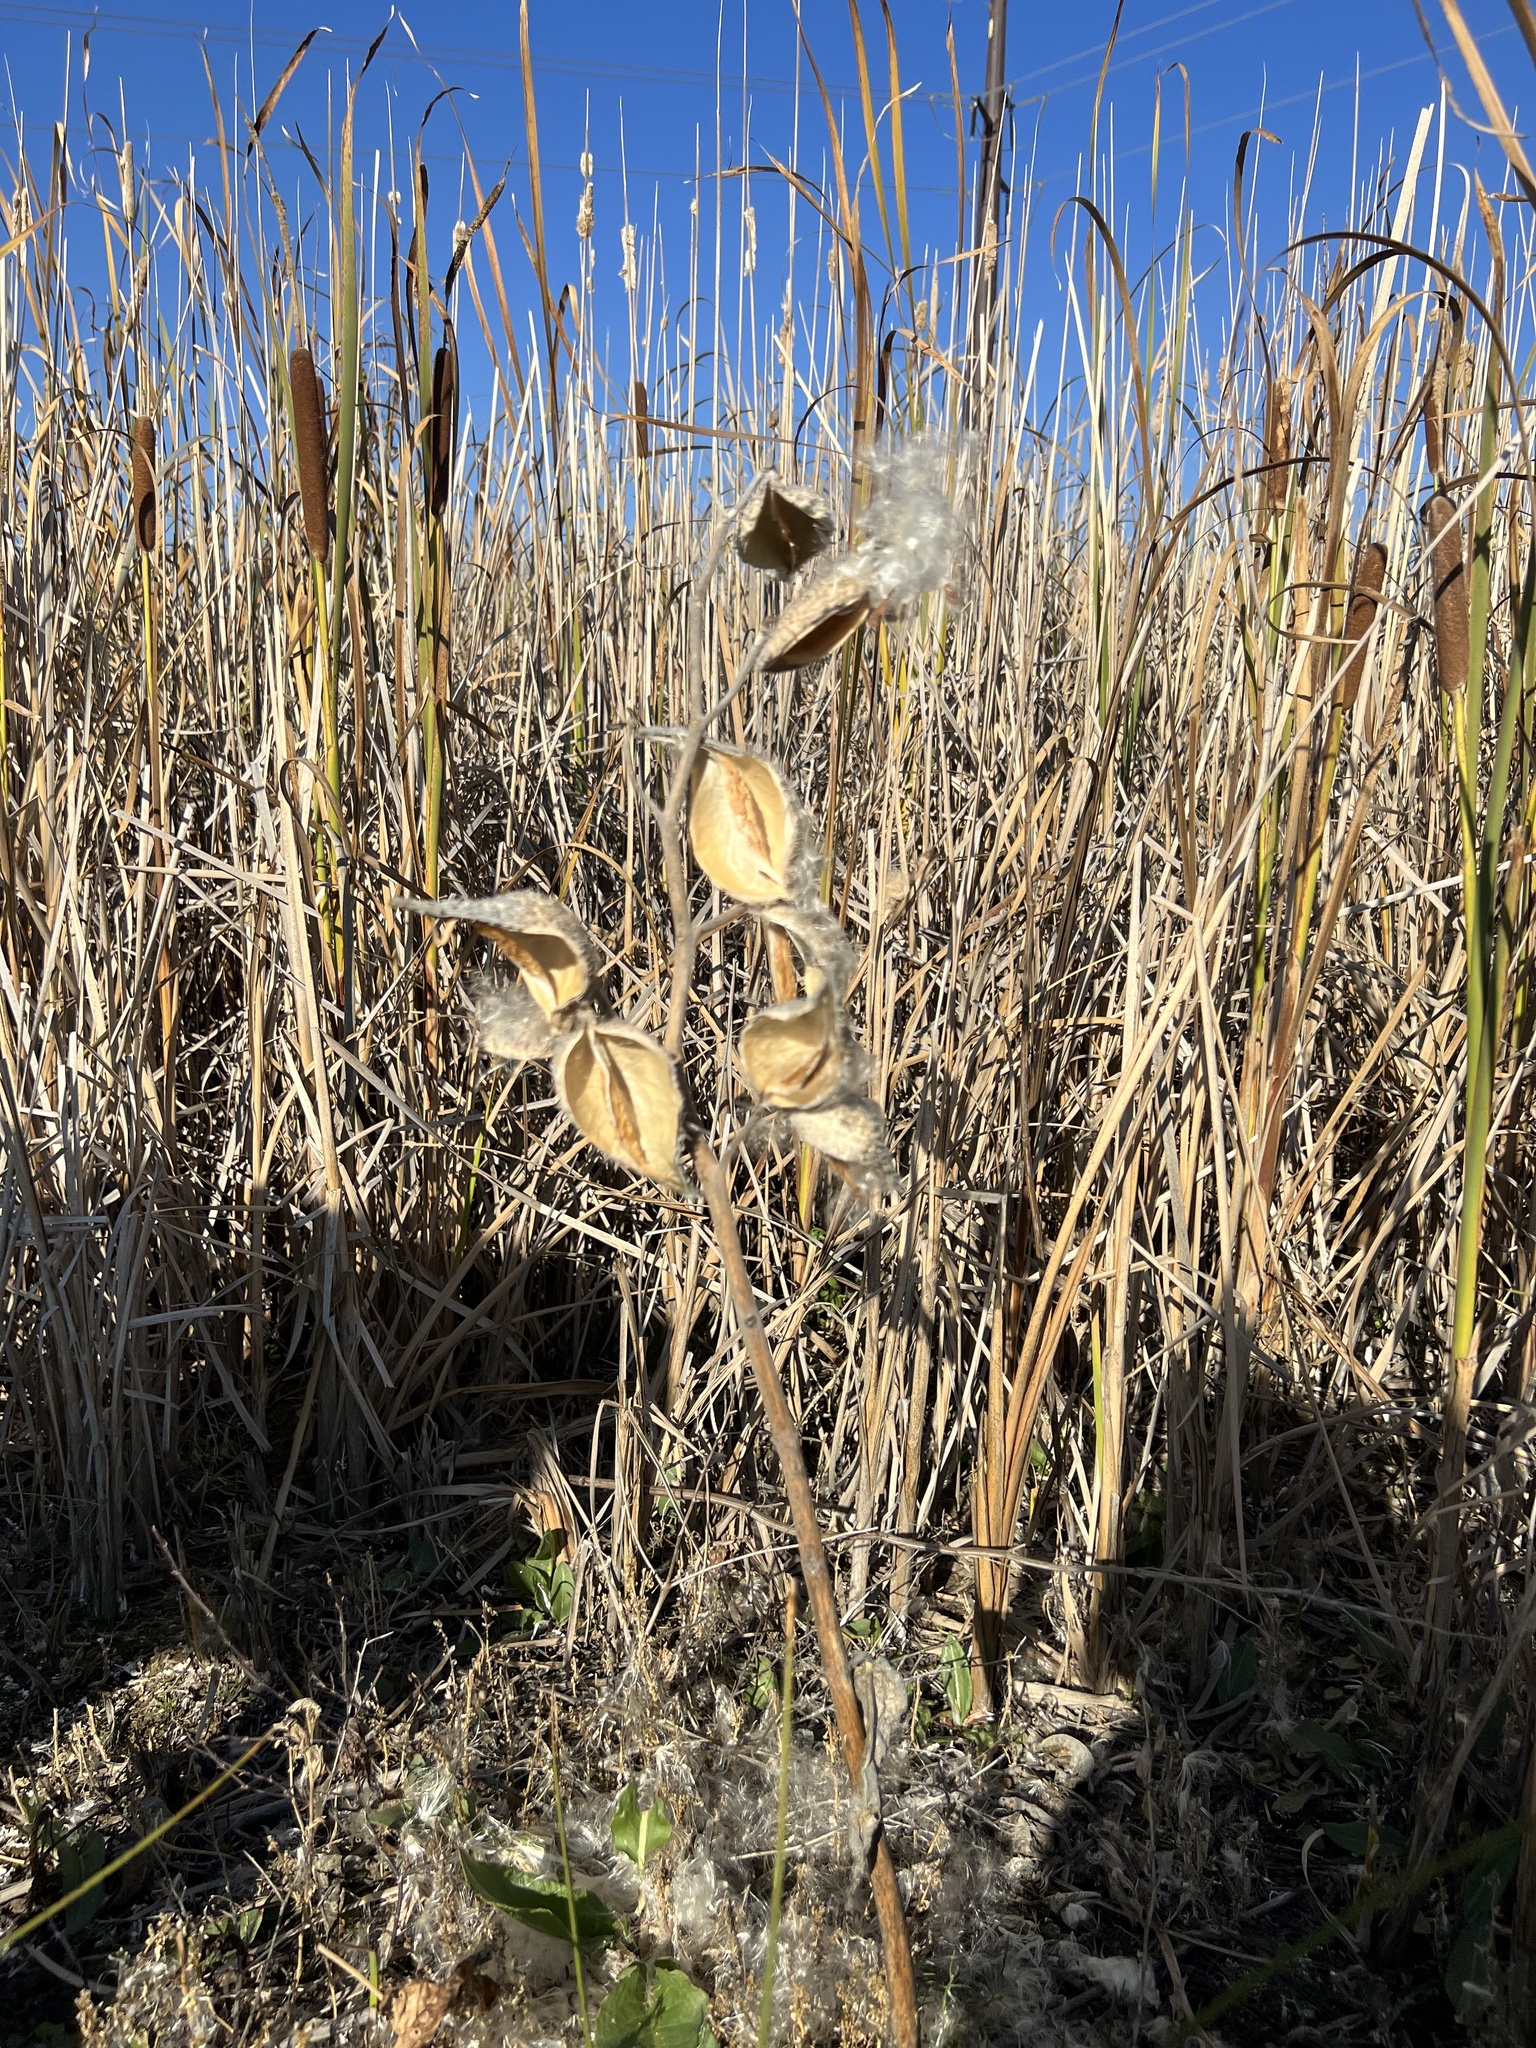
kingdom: Plantae
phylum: Tracheophyta
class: Magnoliopsida
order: Gentianales
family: Apocynaceae
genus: Asclepias
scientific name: Asclepias speciosa
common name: Showy milkweed
